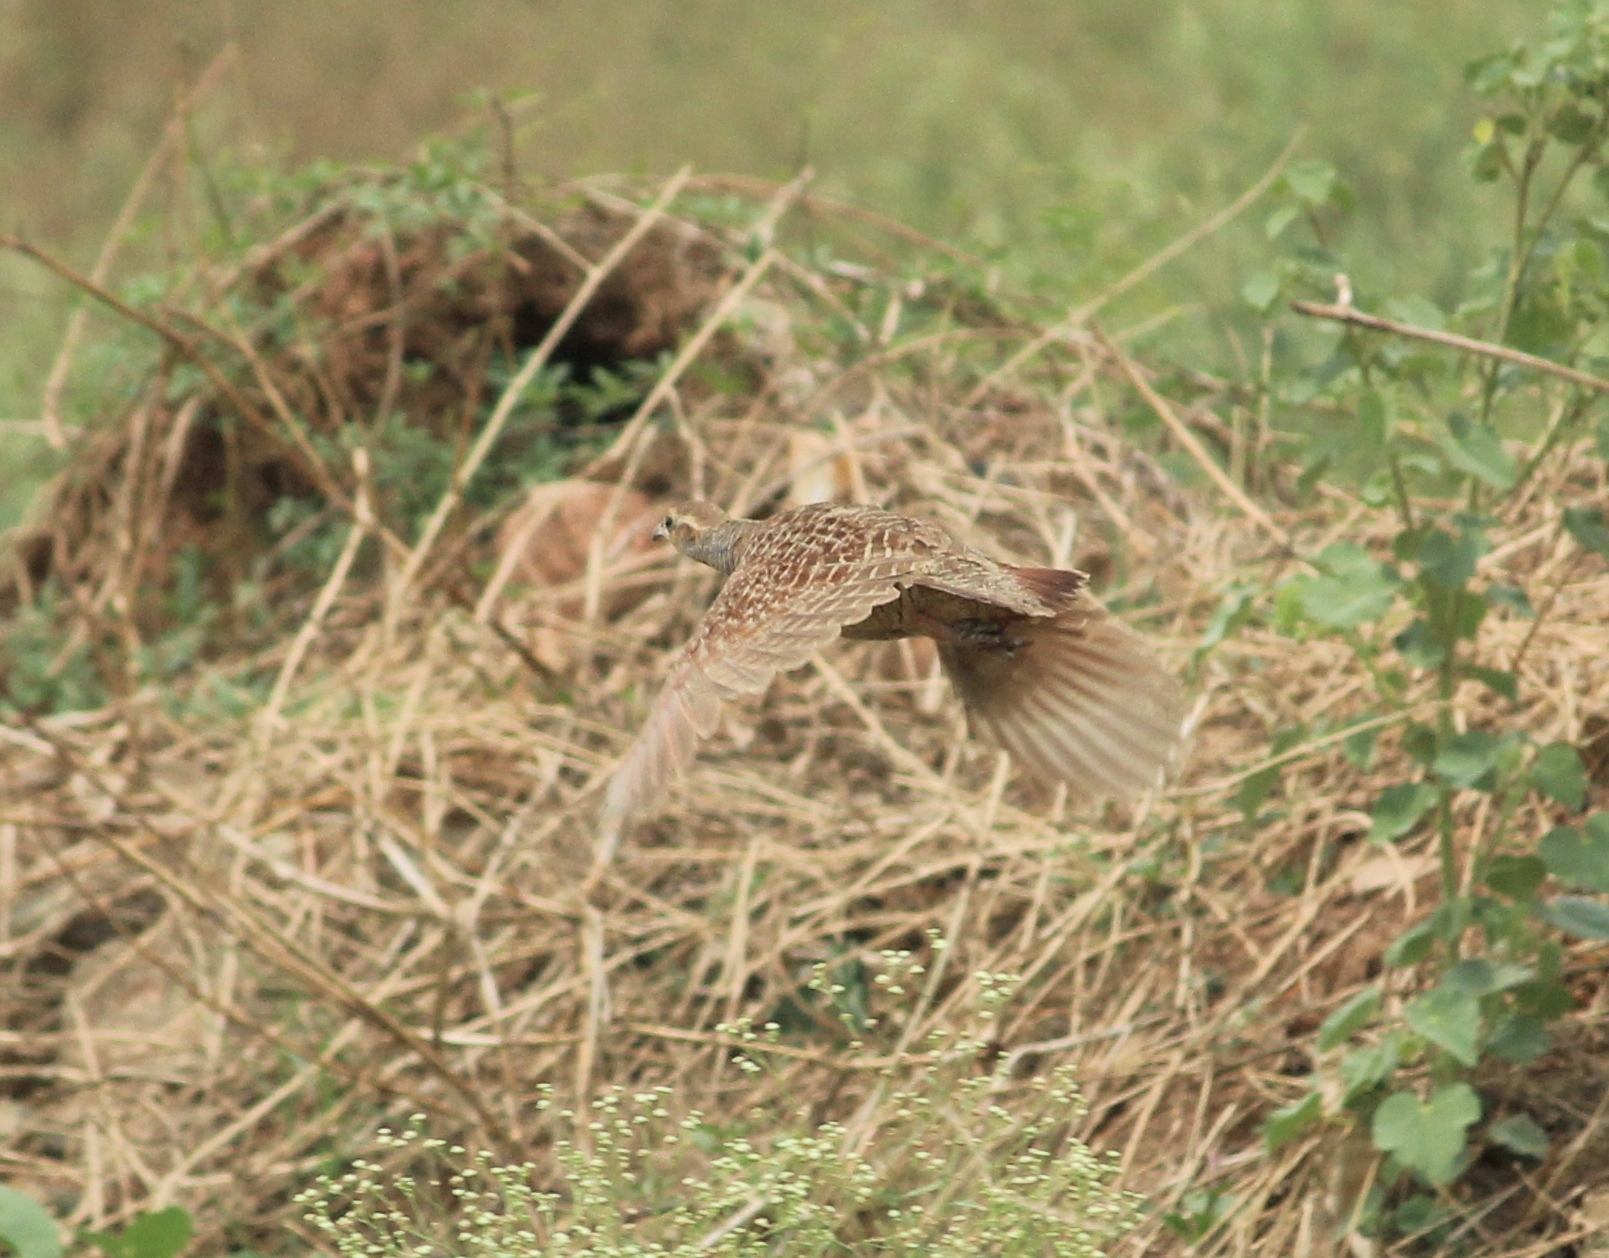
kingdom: Animalia
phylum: Chordata
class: Aves
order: Galliformes
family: Phasianidae
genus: Ortygornis
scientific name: Ortygornis pondicerianus
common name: Grey francolin
